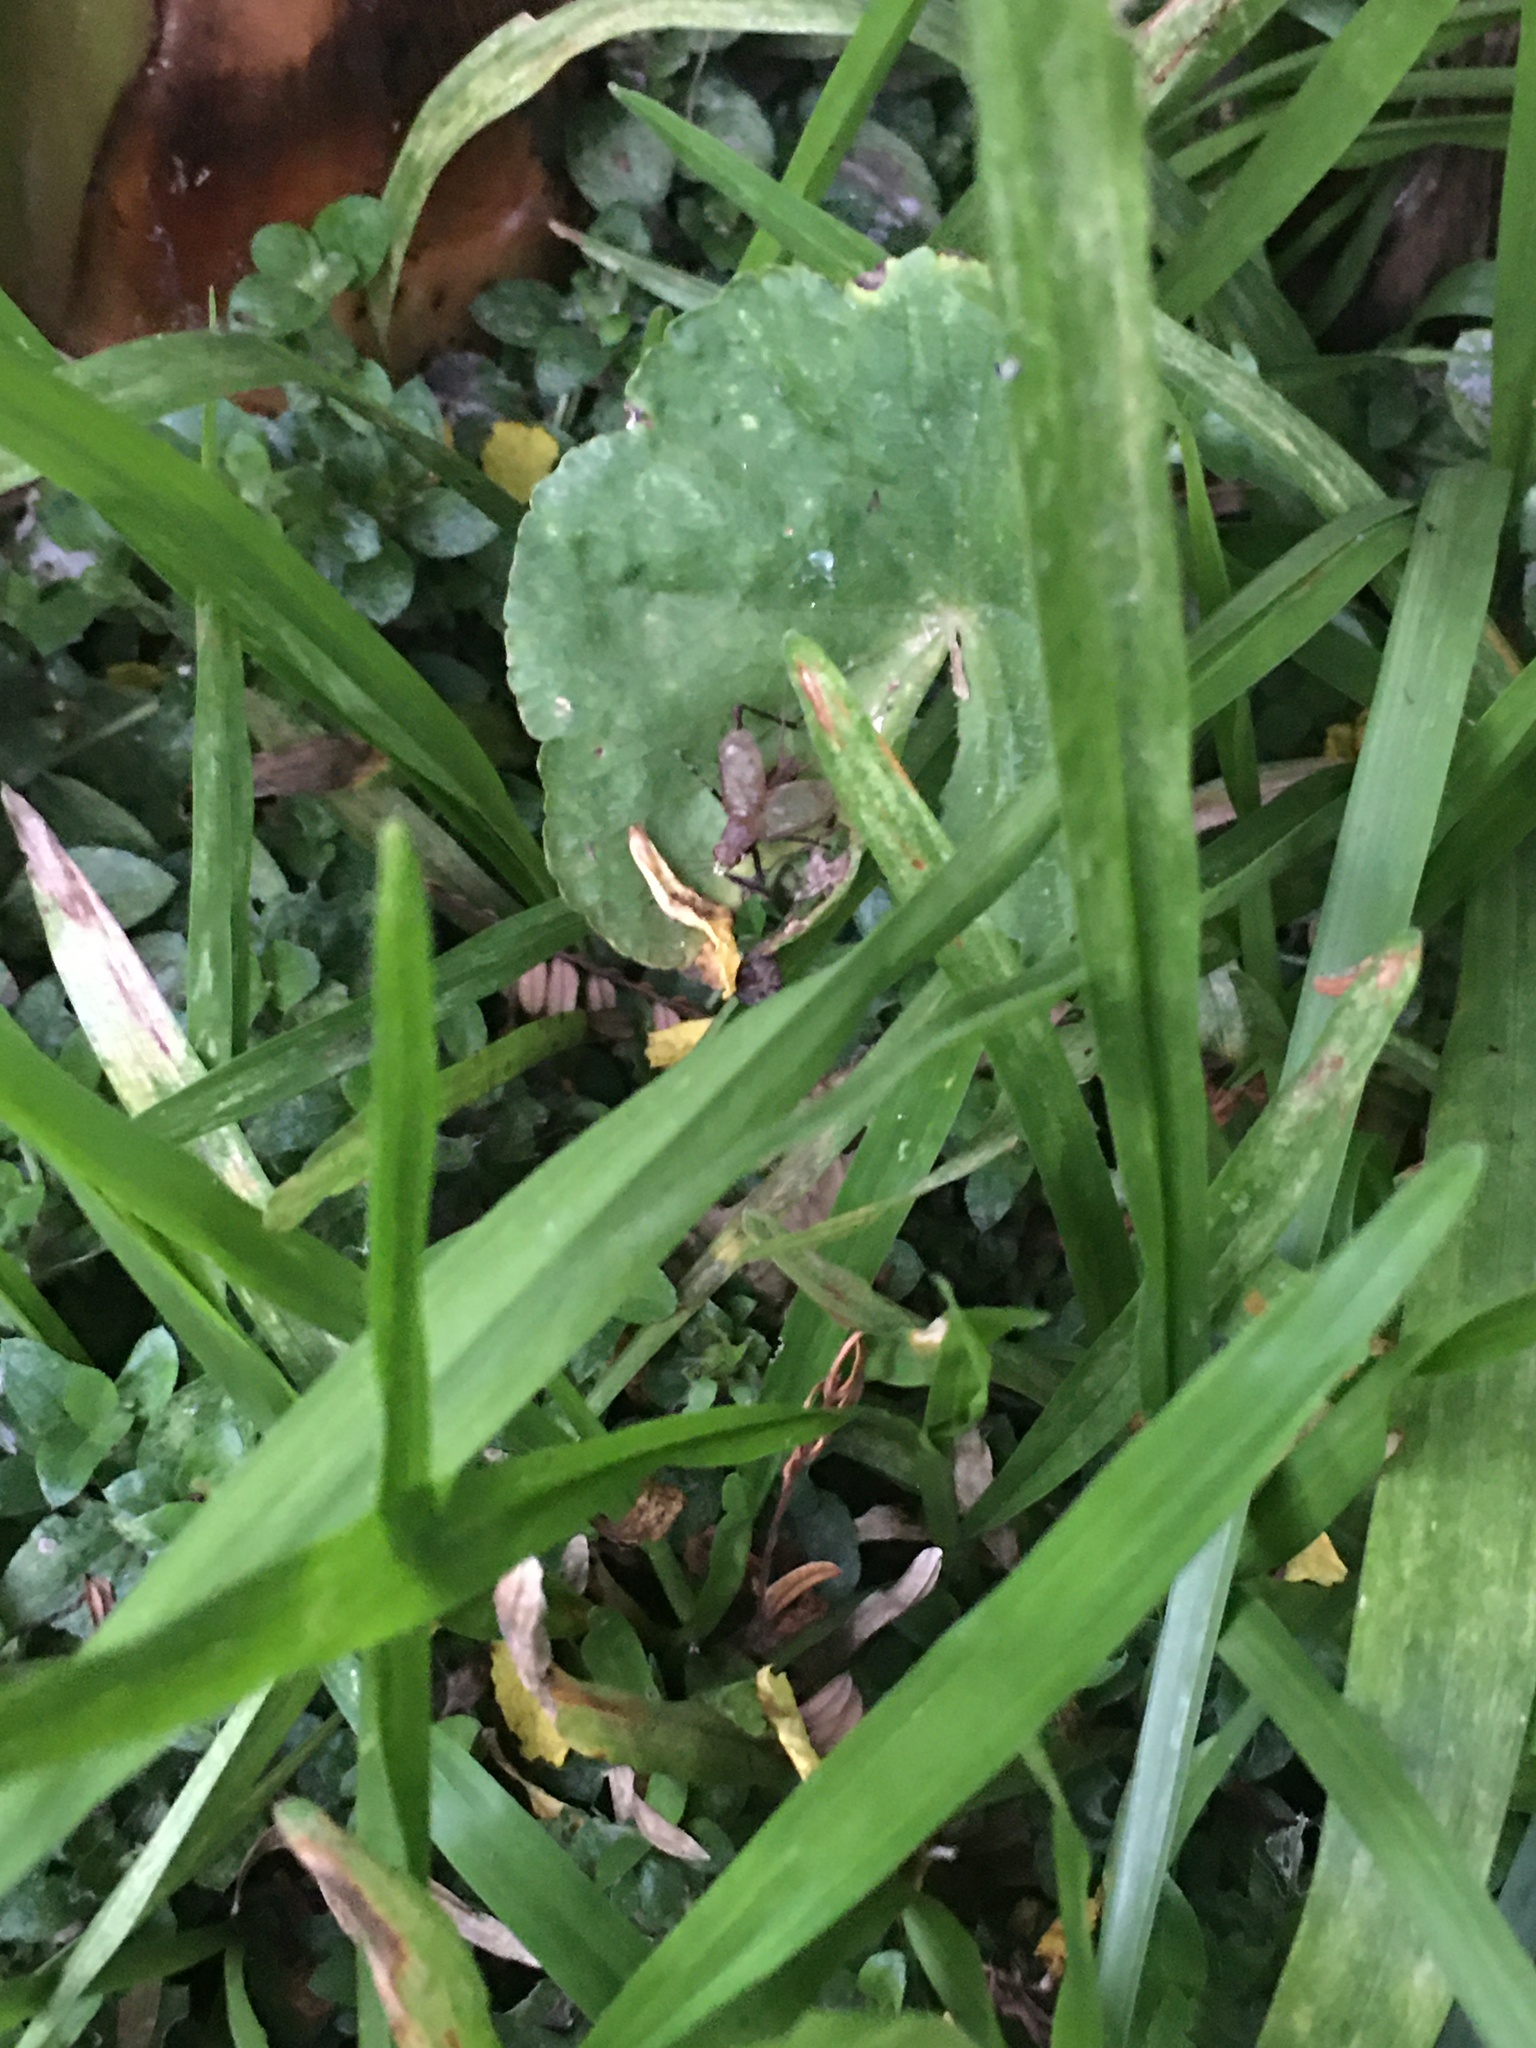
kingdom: Animalia
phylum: Arthropoda
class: Insecta
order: Orthoptera
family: Phalangopsidae
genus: Lerneca
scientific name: Lerneca inalata
